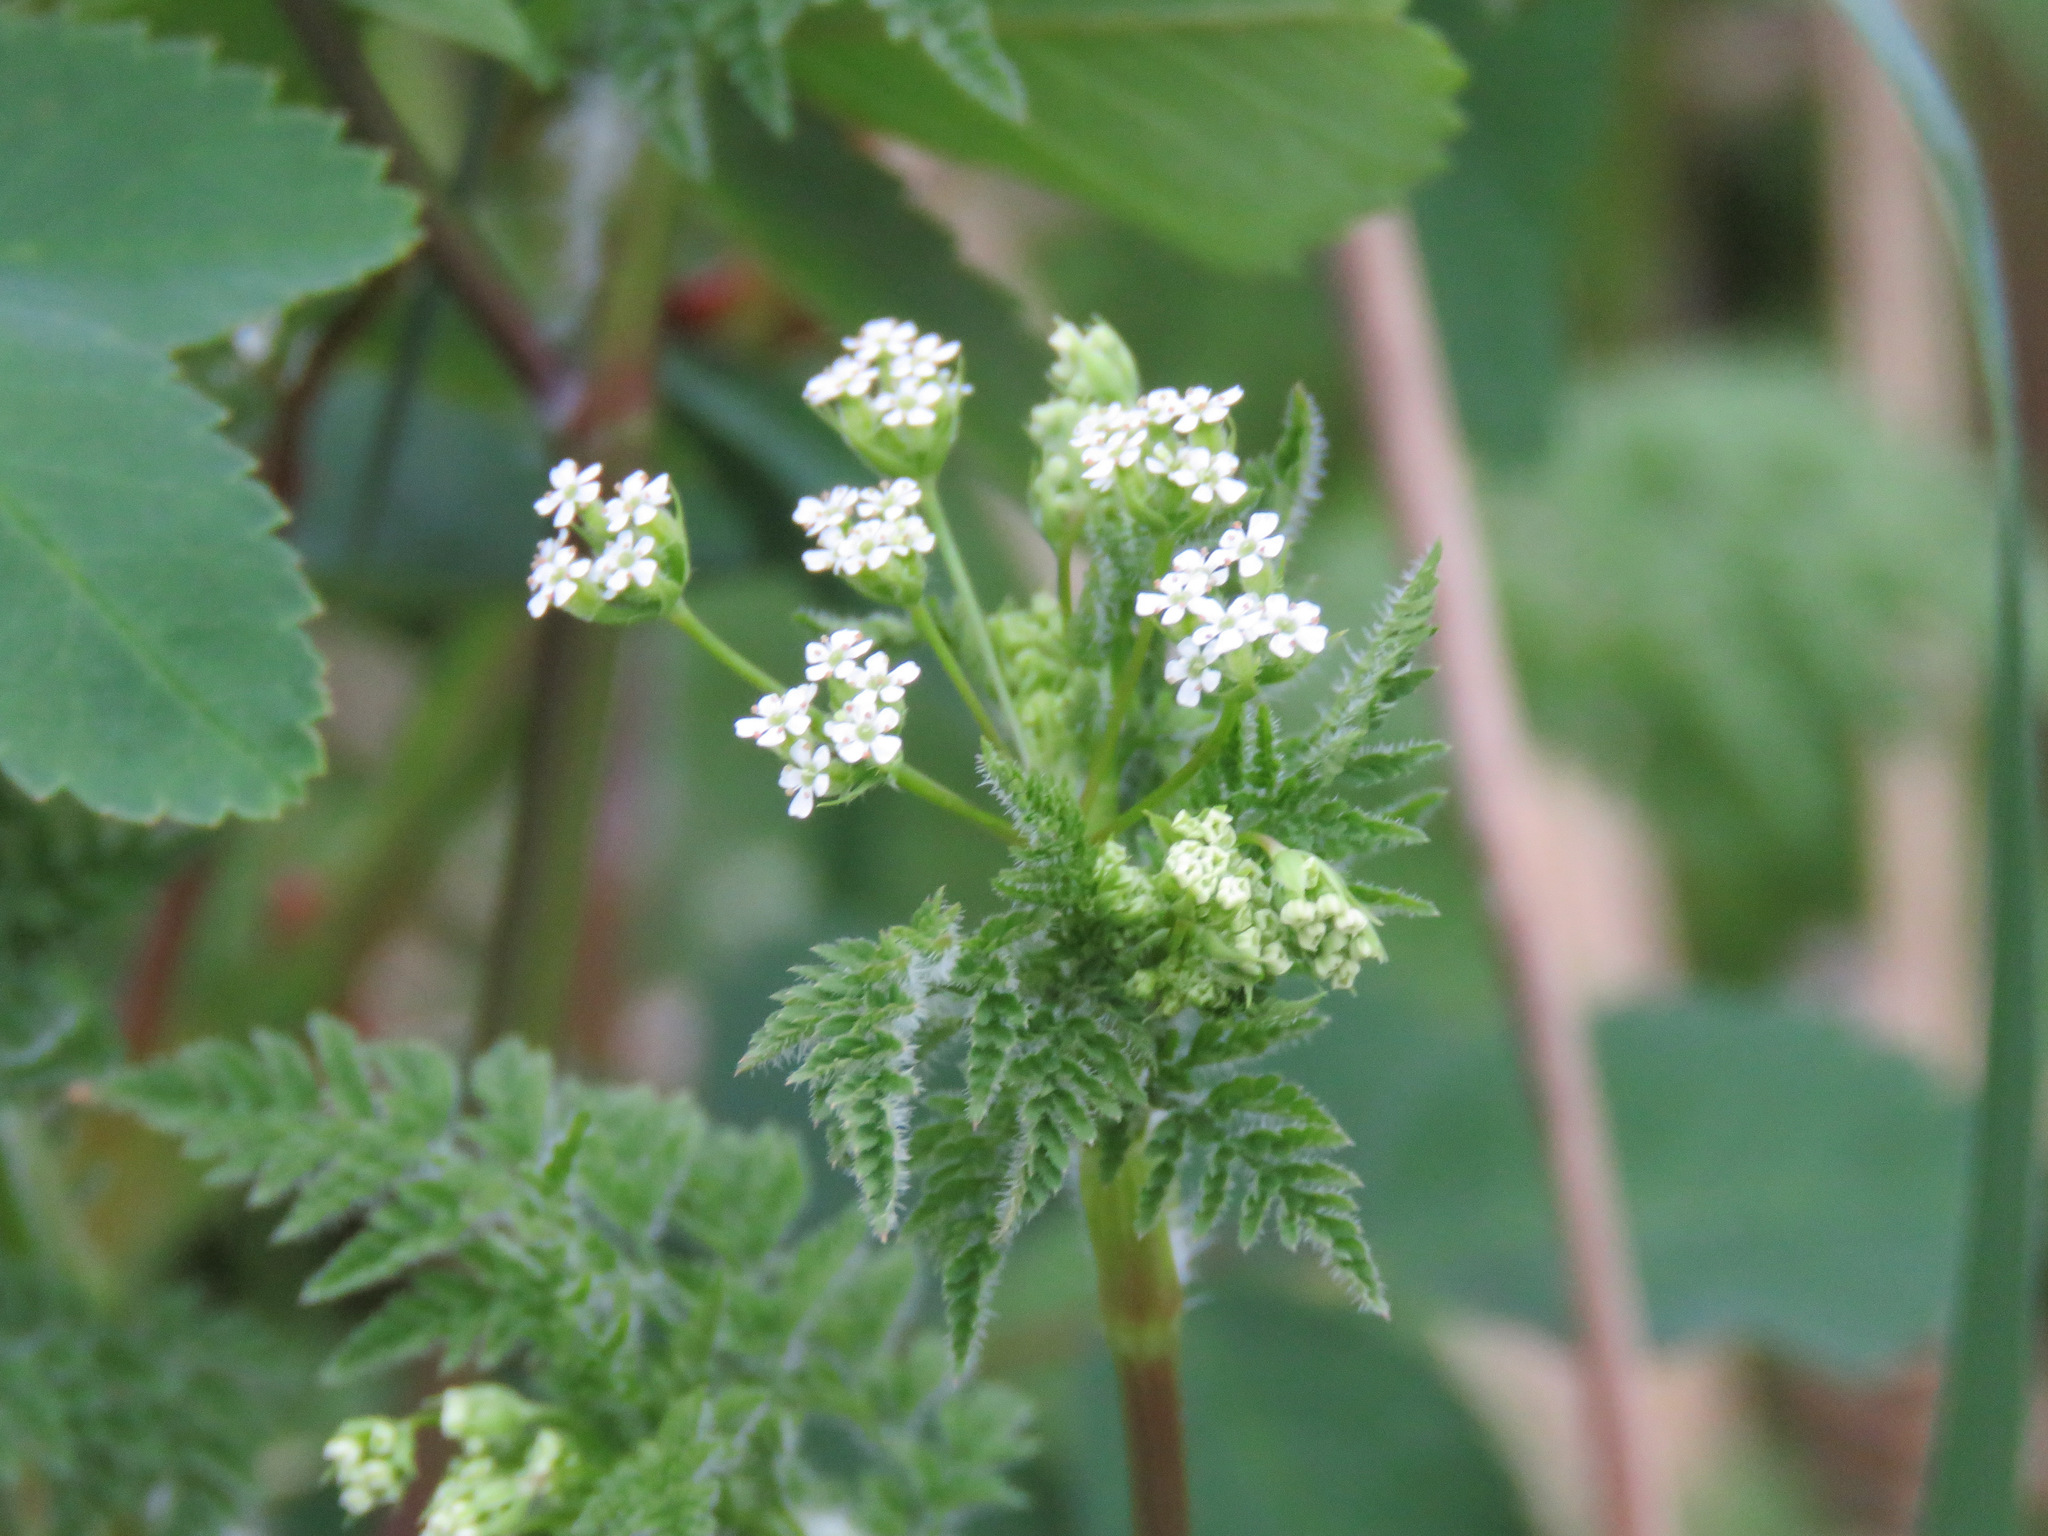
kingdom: Plantae
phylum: Tracheophyta
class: Magnoliopsida
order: Apiales
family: Apiaceae
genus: Anthriscus
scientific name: Anthriscus caucalis
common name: Bur chervil
